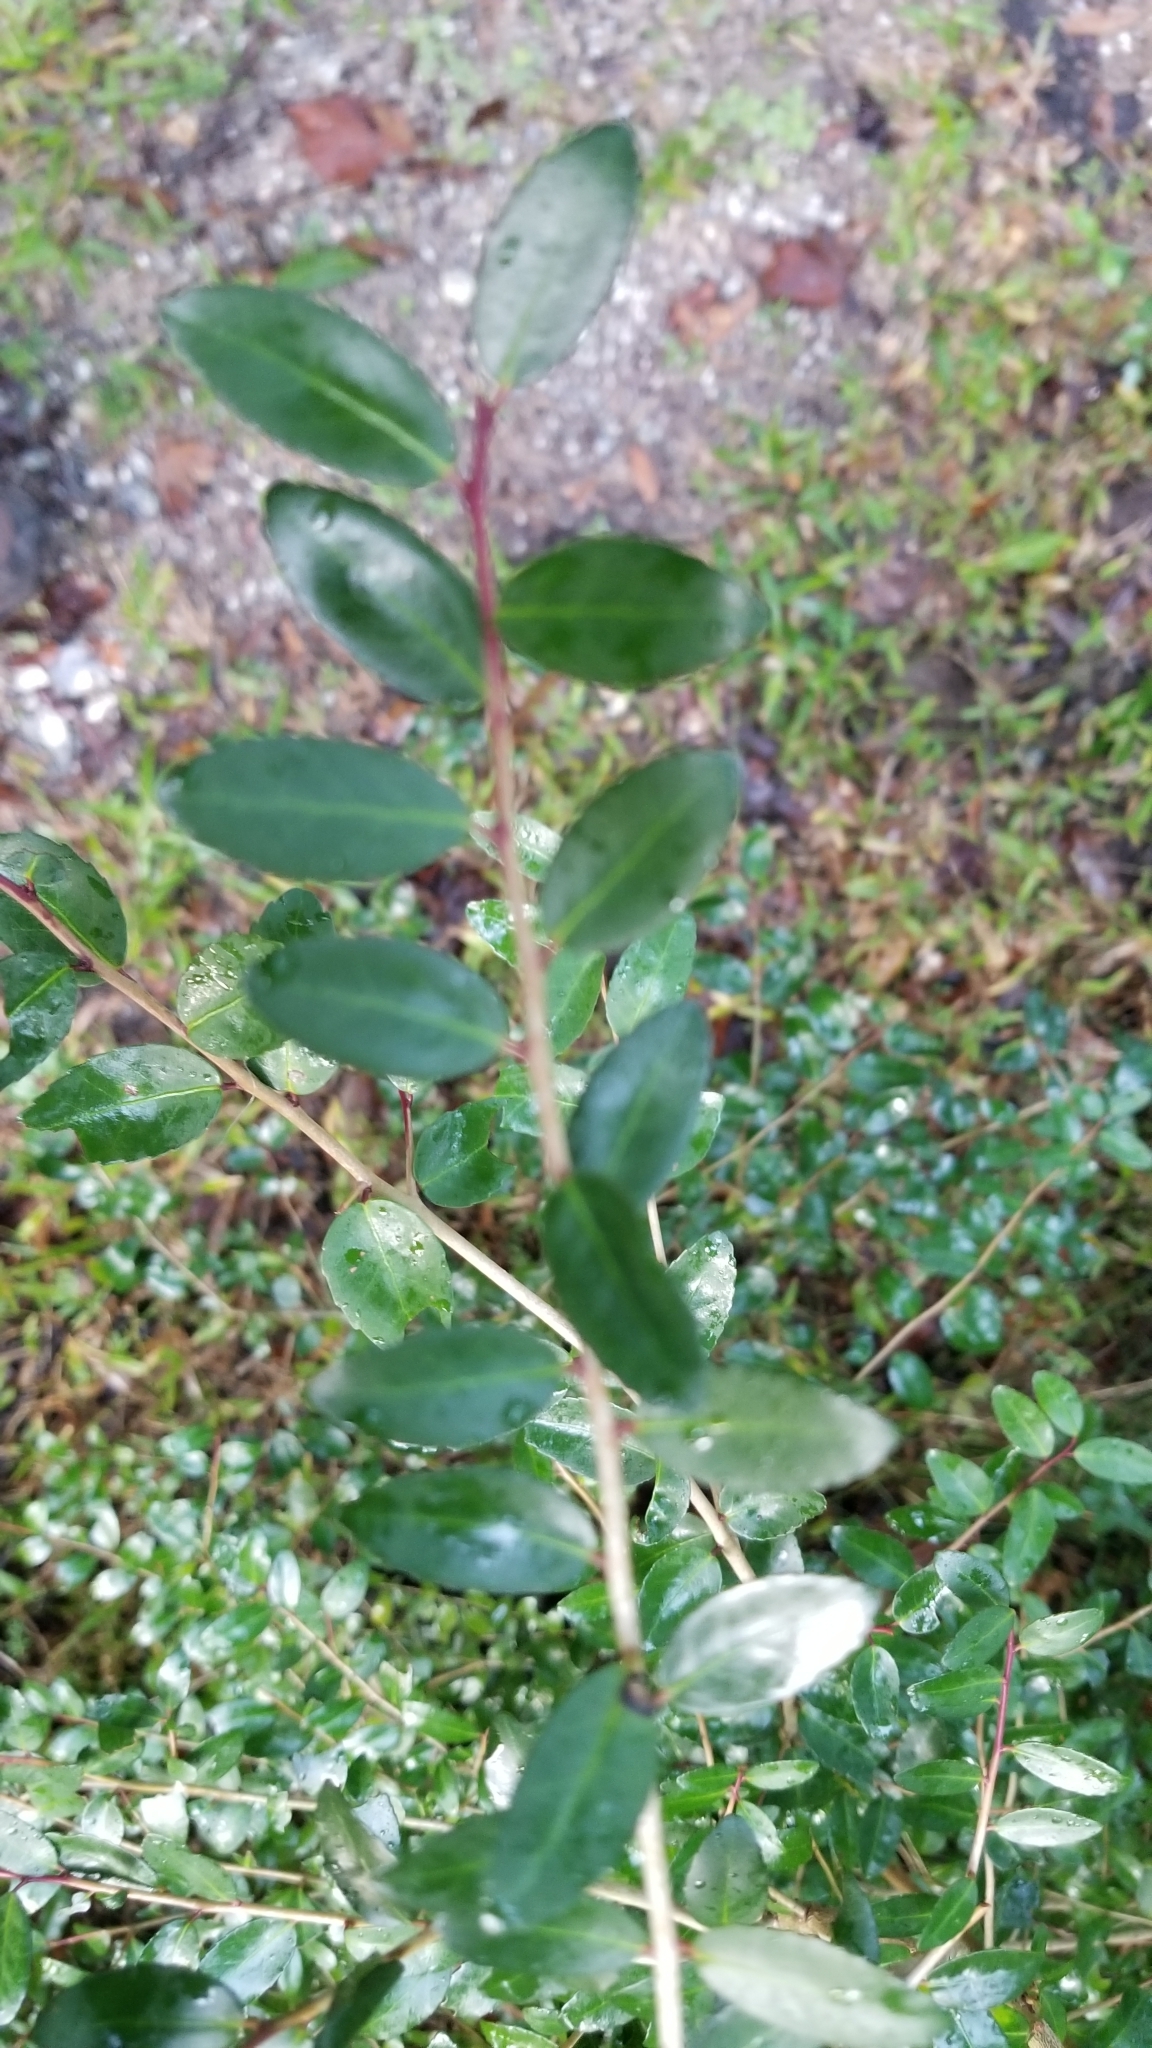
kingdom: Plantae
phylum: Tracheophyta
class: Magnoliopsida
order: Aquifoliales
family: Aquifoliaceae
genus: Ilex
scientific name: Ilex vomitoria
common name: Yaupon holly
